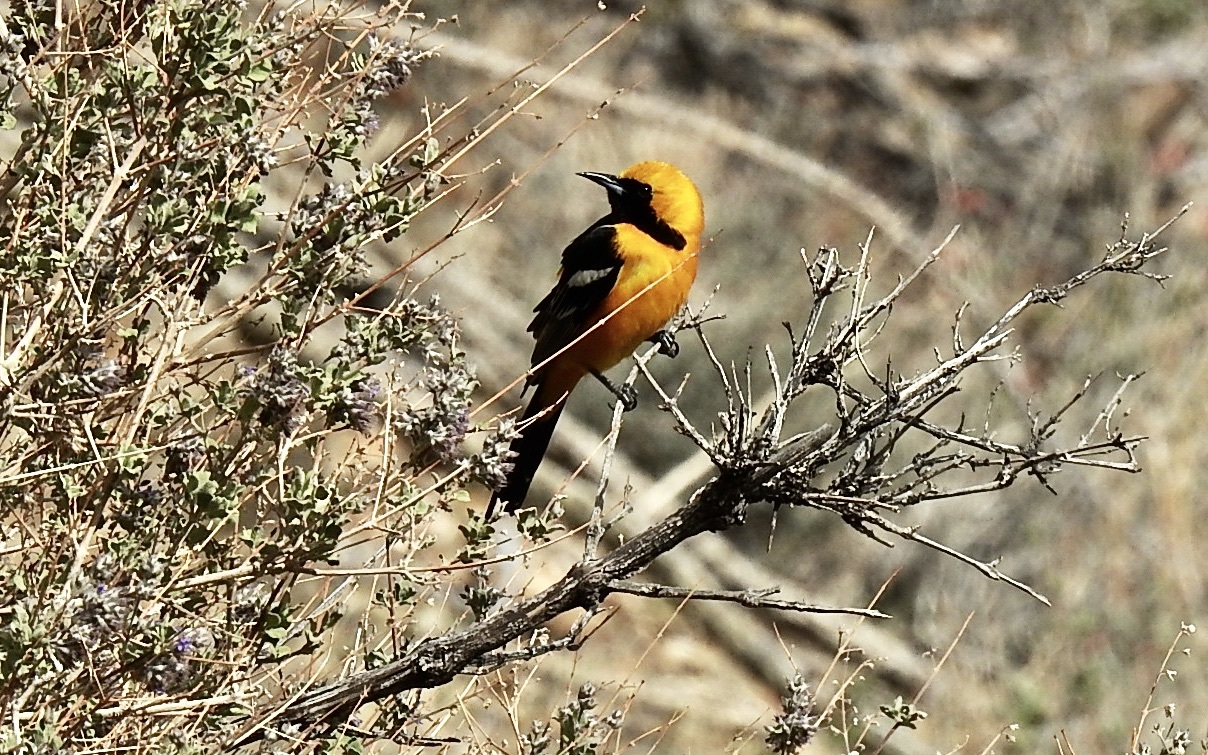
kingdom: Animalia
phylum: Chordata
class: Aves
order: Passeriformes
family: Icteridae
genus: Icterus
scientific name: Icterus cucullatus
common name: Hooded oriole
